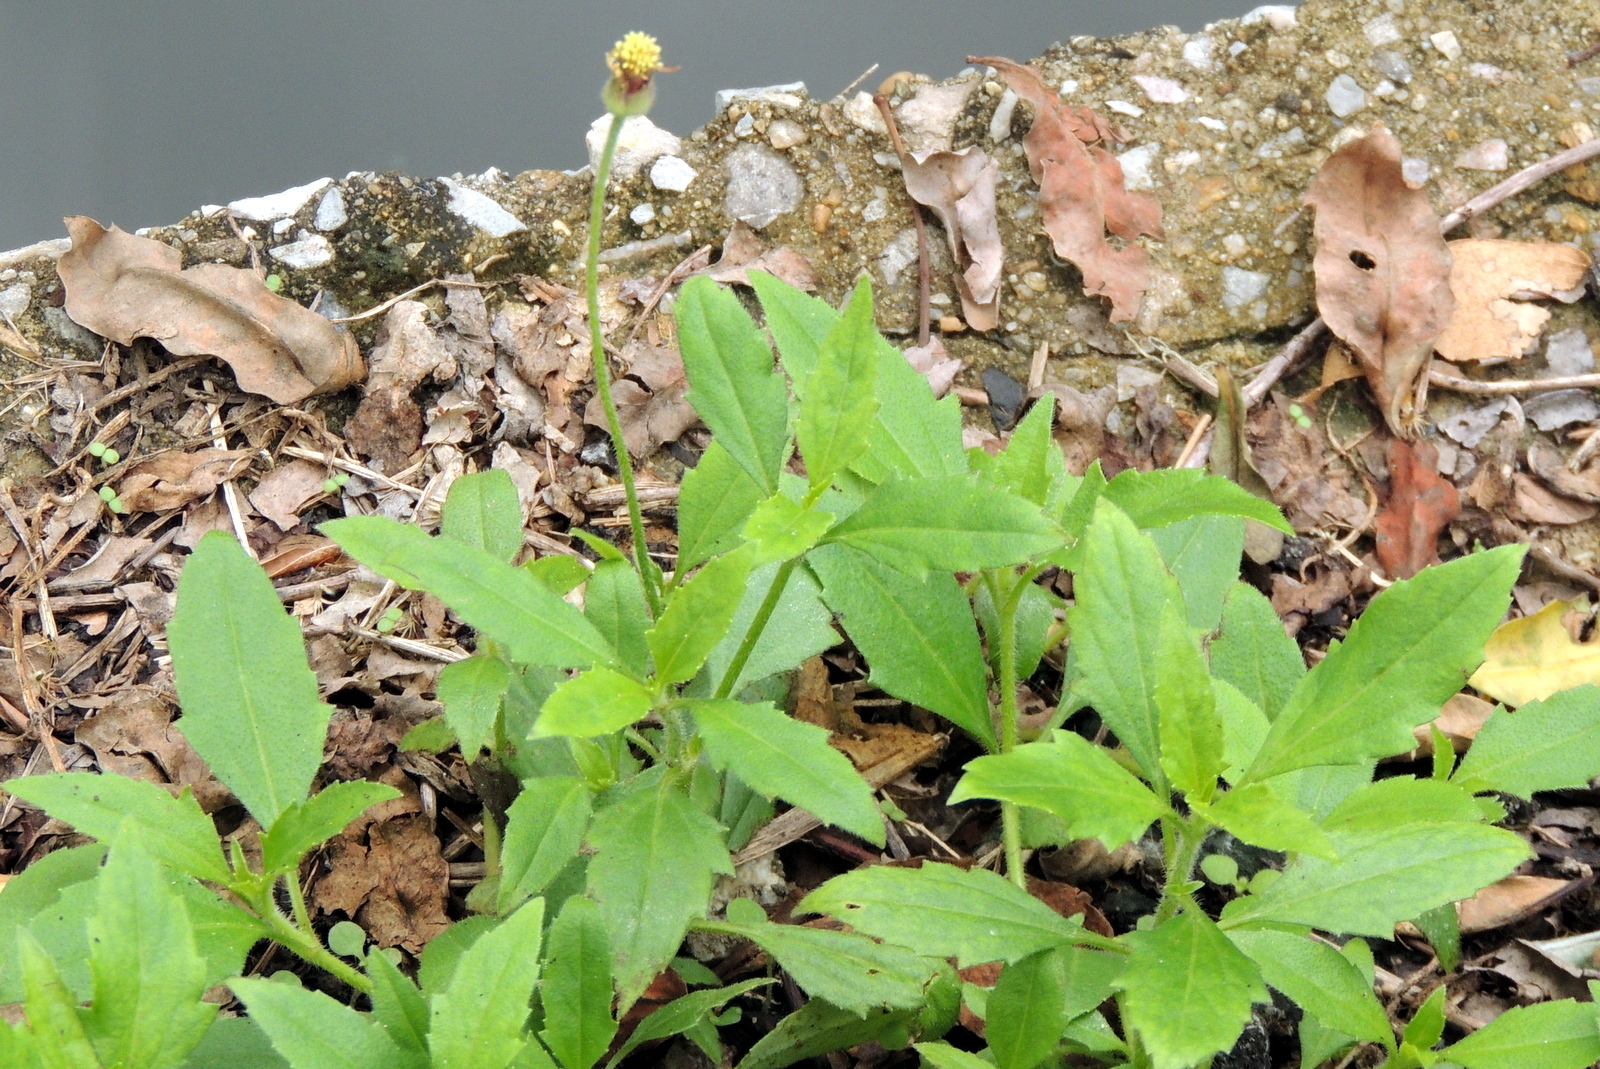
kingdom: Plantae
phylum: Tracheophyta
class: Magnoliopsida
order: Asterales
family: Asteraceae
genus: Tridax
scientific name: Tridax procumbens
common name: Coatbuttons
